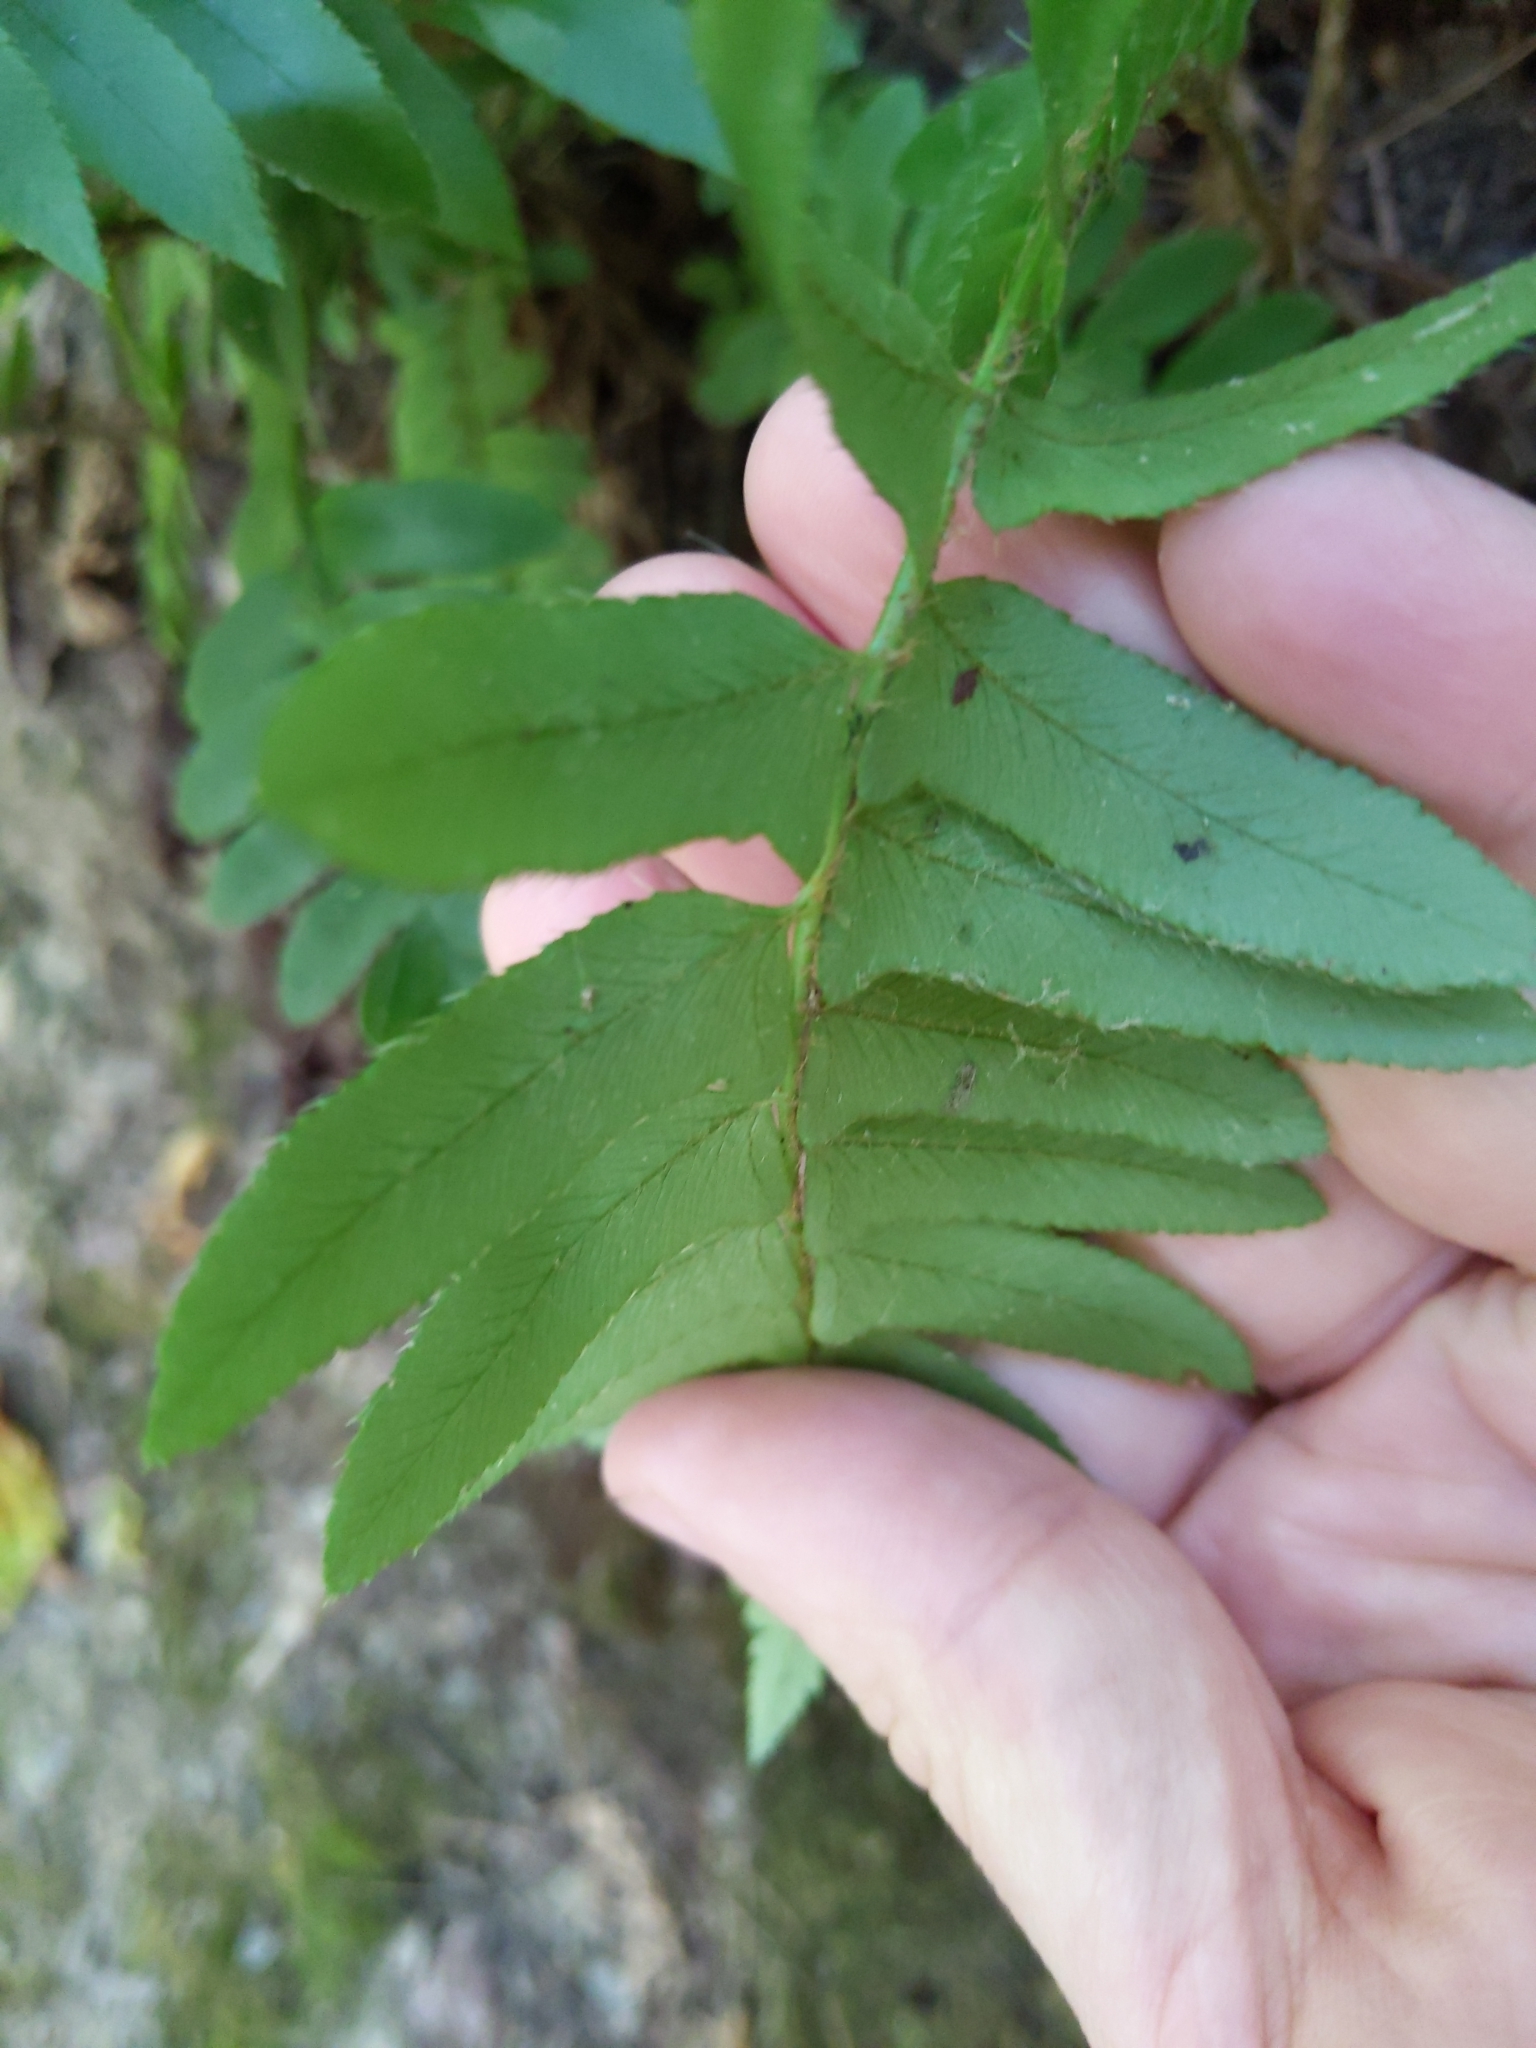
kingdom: Plantae
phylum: Tracheophyta
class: Polypodiopsida
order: Polypodiales
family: Dryopteridaceae
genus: Polystichum
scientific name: Polystichum acrostichoides
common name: Christmas fern
